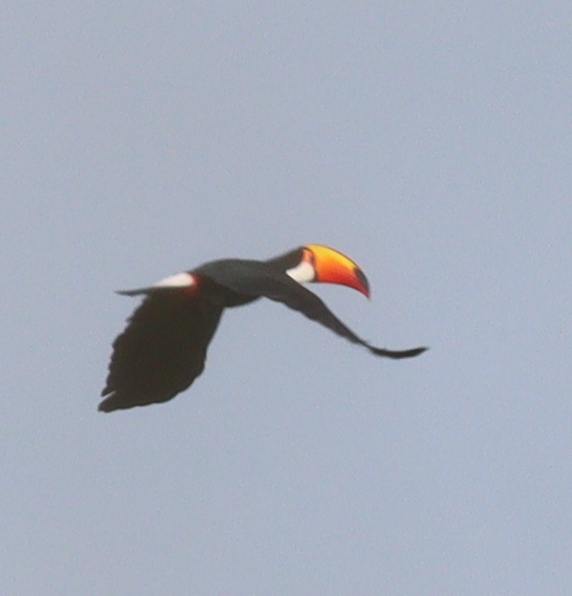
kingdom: Animalia
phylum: Chordata
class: Aves
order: Piciformes
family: Ramphastidae
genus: Ramphastos
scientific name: Ramphastos toco
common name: Toco toucan
